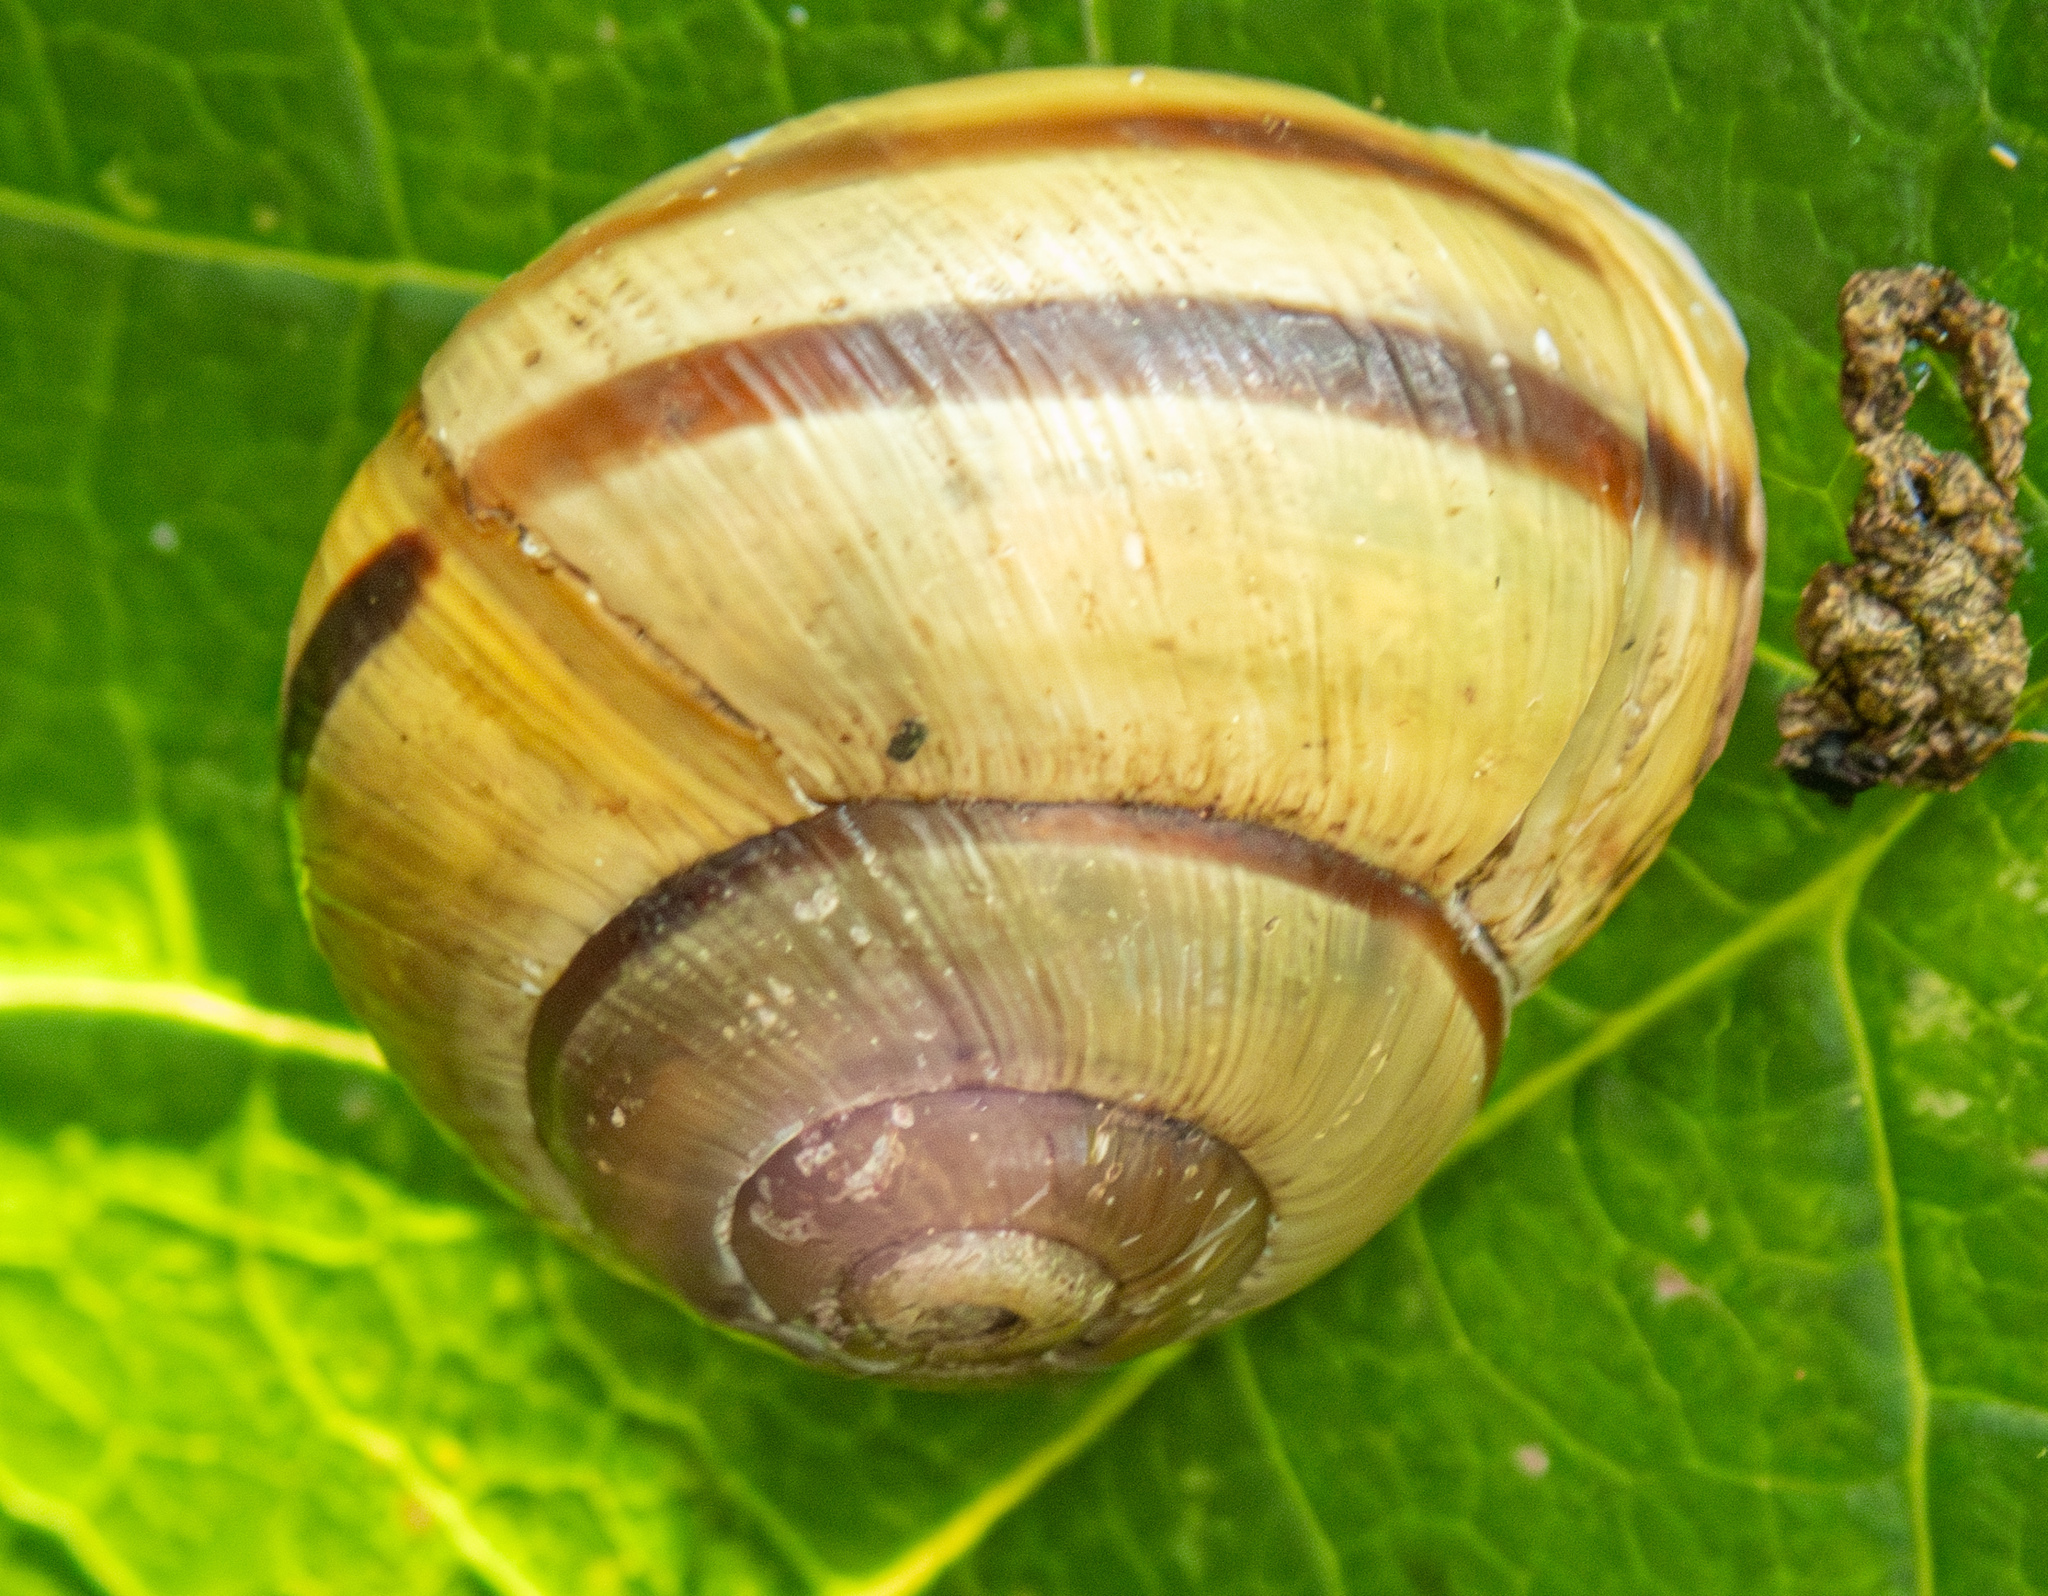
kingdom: Animalia
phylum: Mollusca
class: Gastropoda
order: Stylommatophora
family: Helicidae
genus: Cepaea
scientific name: Cepaea nemoralis
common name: Grovesnail
